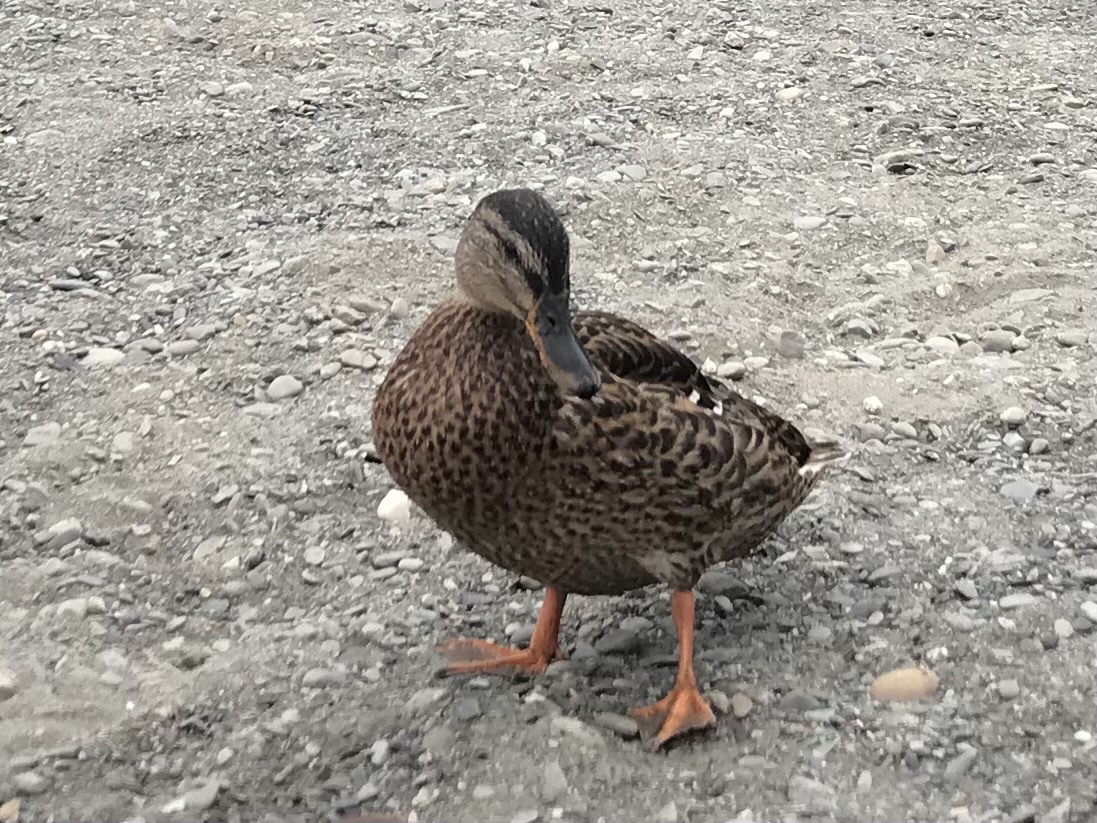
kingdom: Animalia
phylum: Chordata
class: Aves
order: Anseriformes
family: Anatidae
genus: Anas
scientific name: Anas platyrhynchos
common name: Mallard
